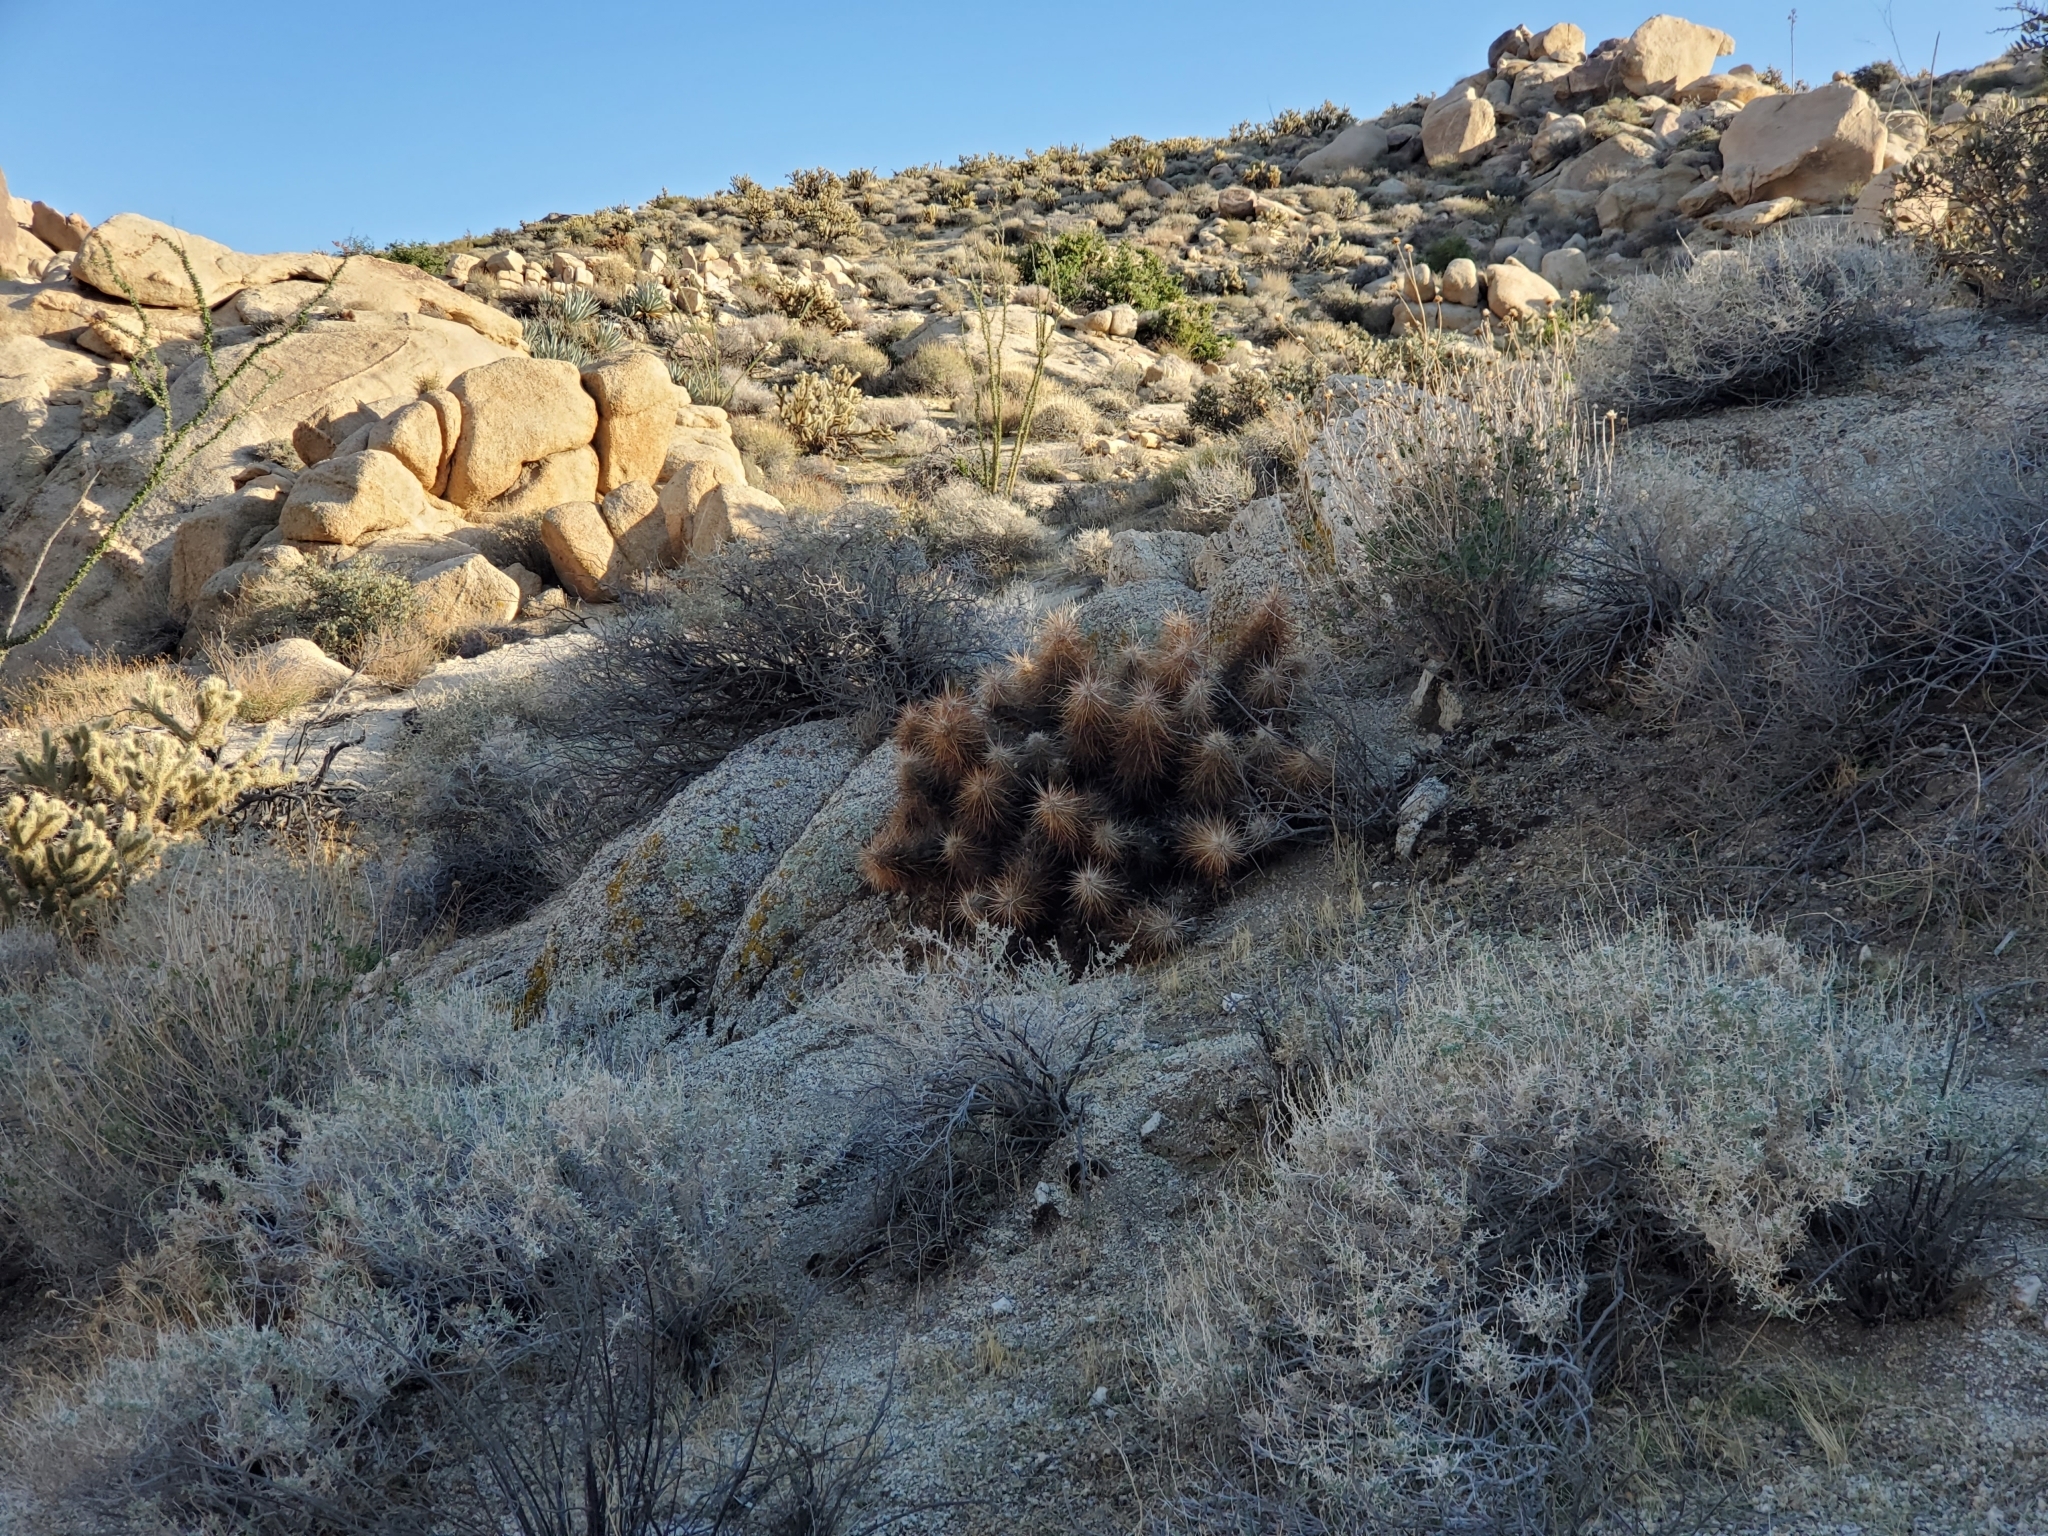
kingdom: Plantae
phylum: Tracheophyta
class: Magnoliopsida
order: Caryophyllales
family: Cactaceae
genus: Echinocereus
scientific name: Echinocereus engelmannii
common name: Engelmann's hedgehog cactus
